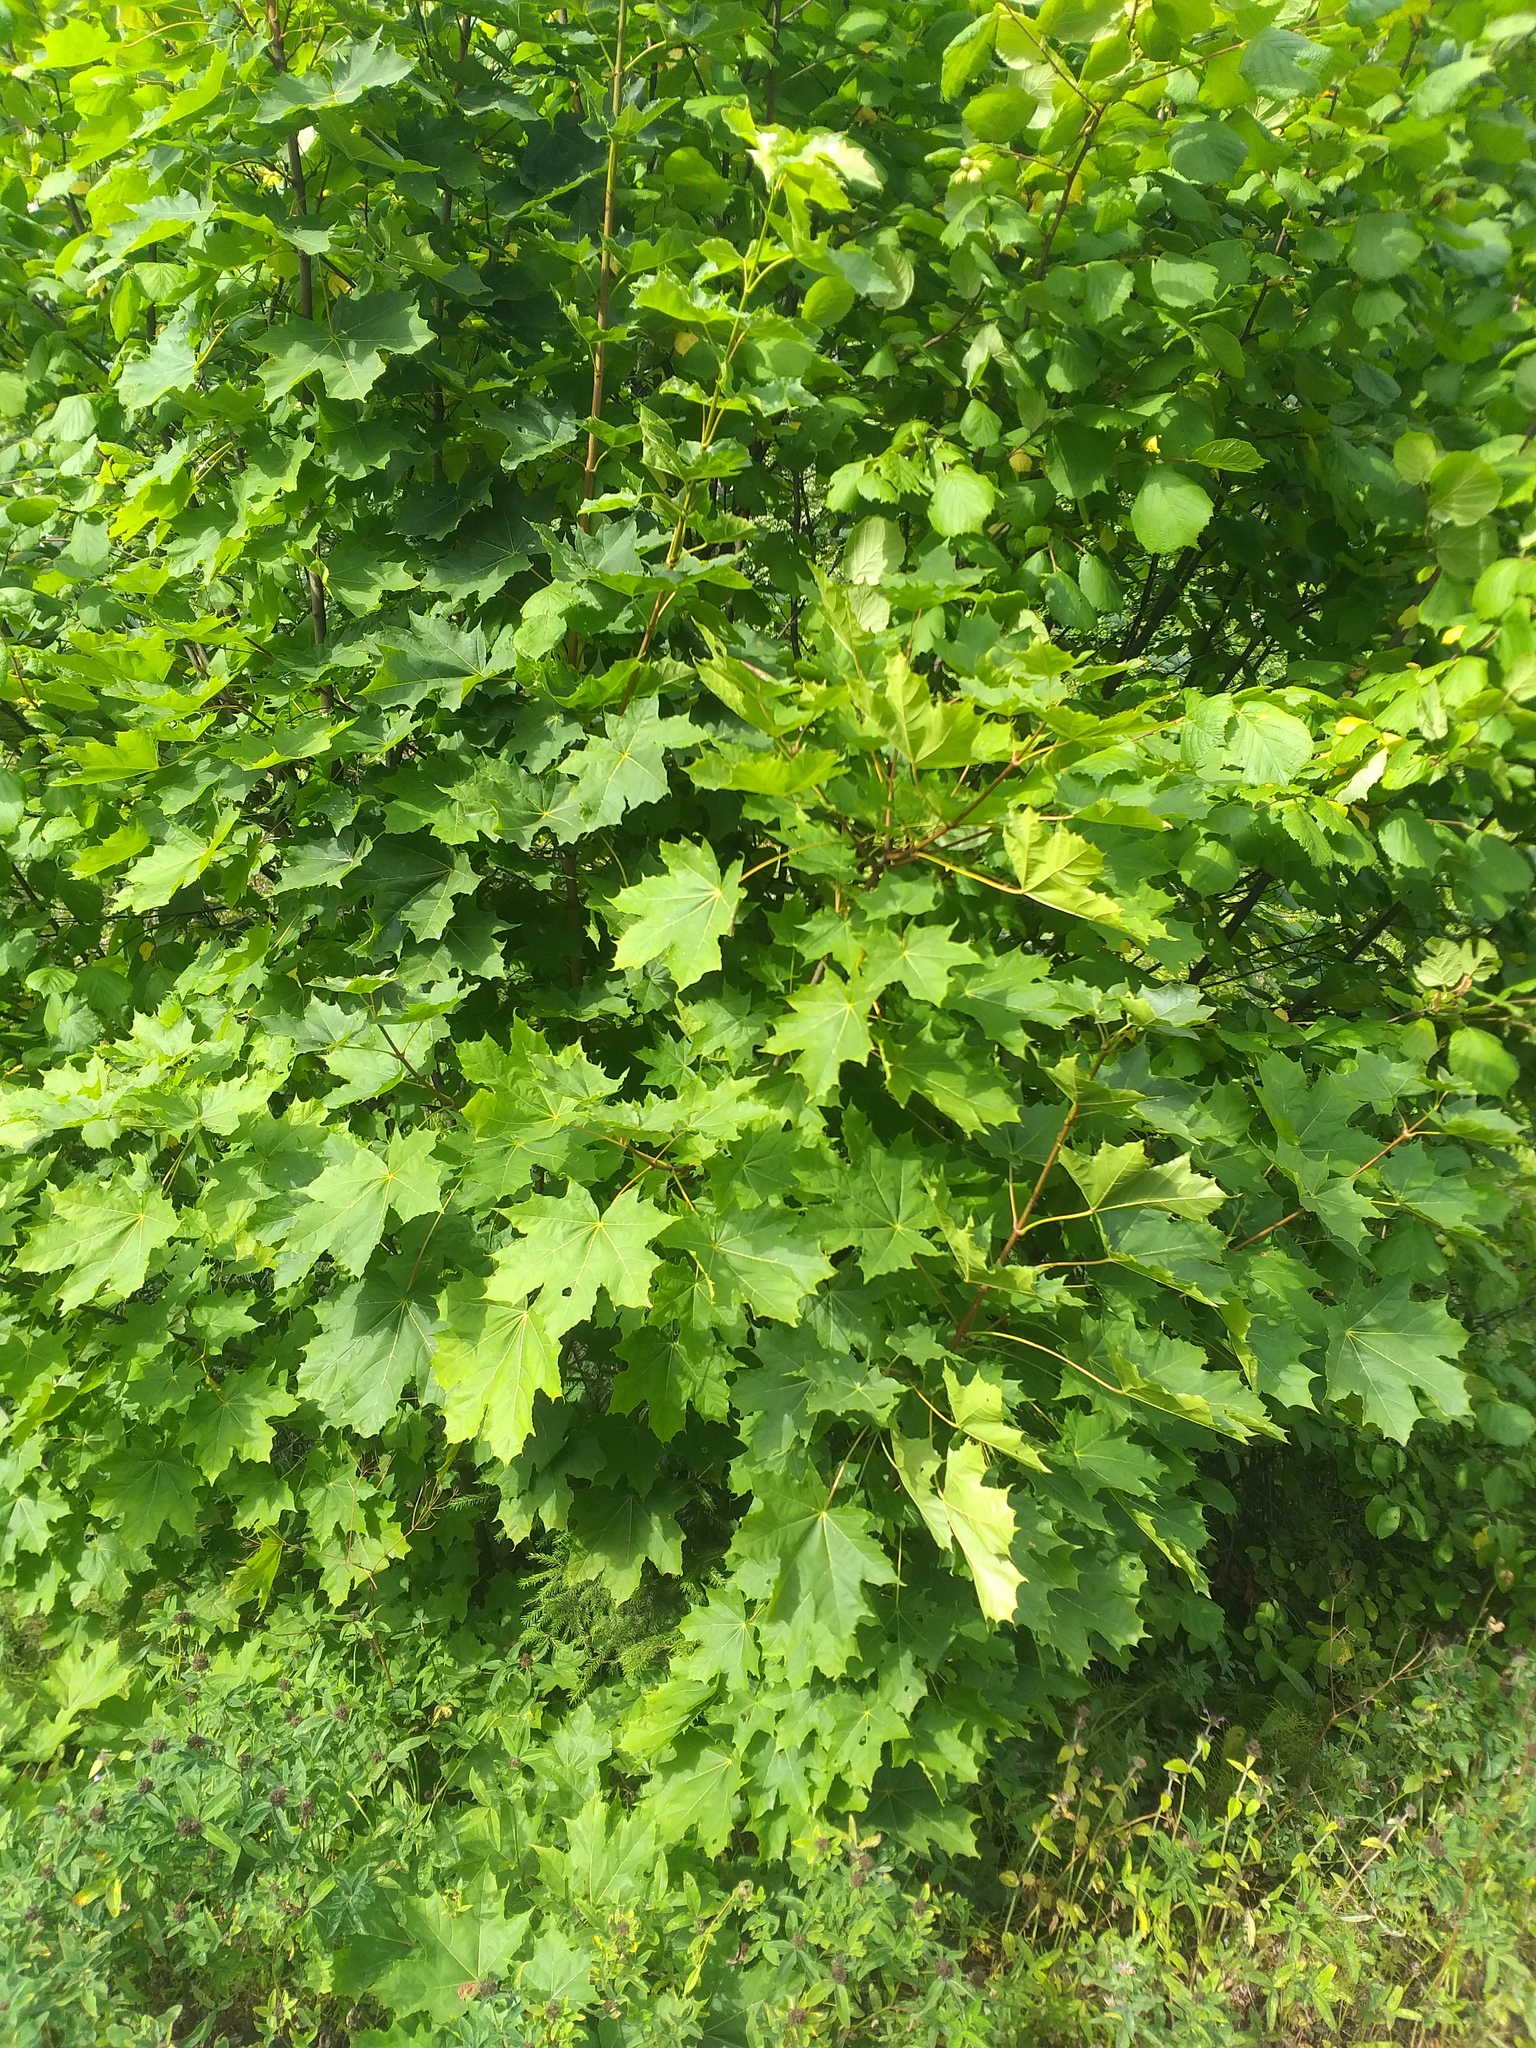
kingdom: Plantae
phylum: Tracheophyta
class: Magnoliopsida
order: Sapindales
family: Sapindaceae
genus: Acer
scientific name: Acer platanoides
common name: Norway maple
